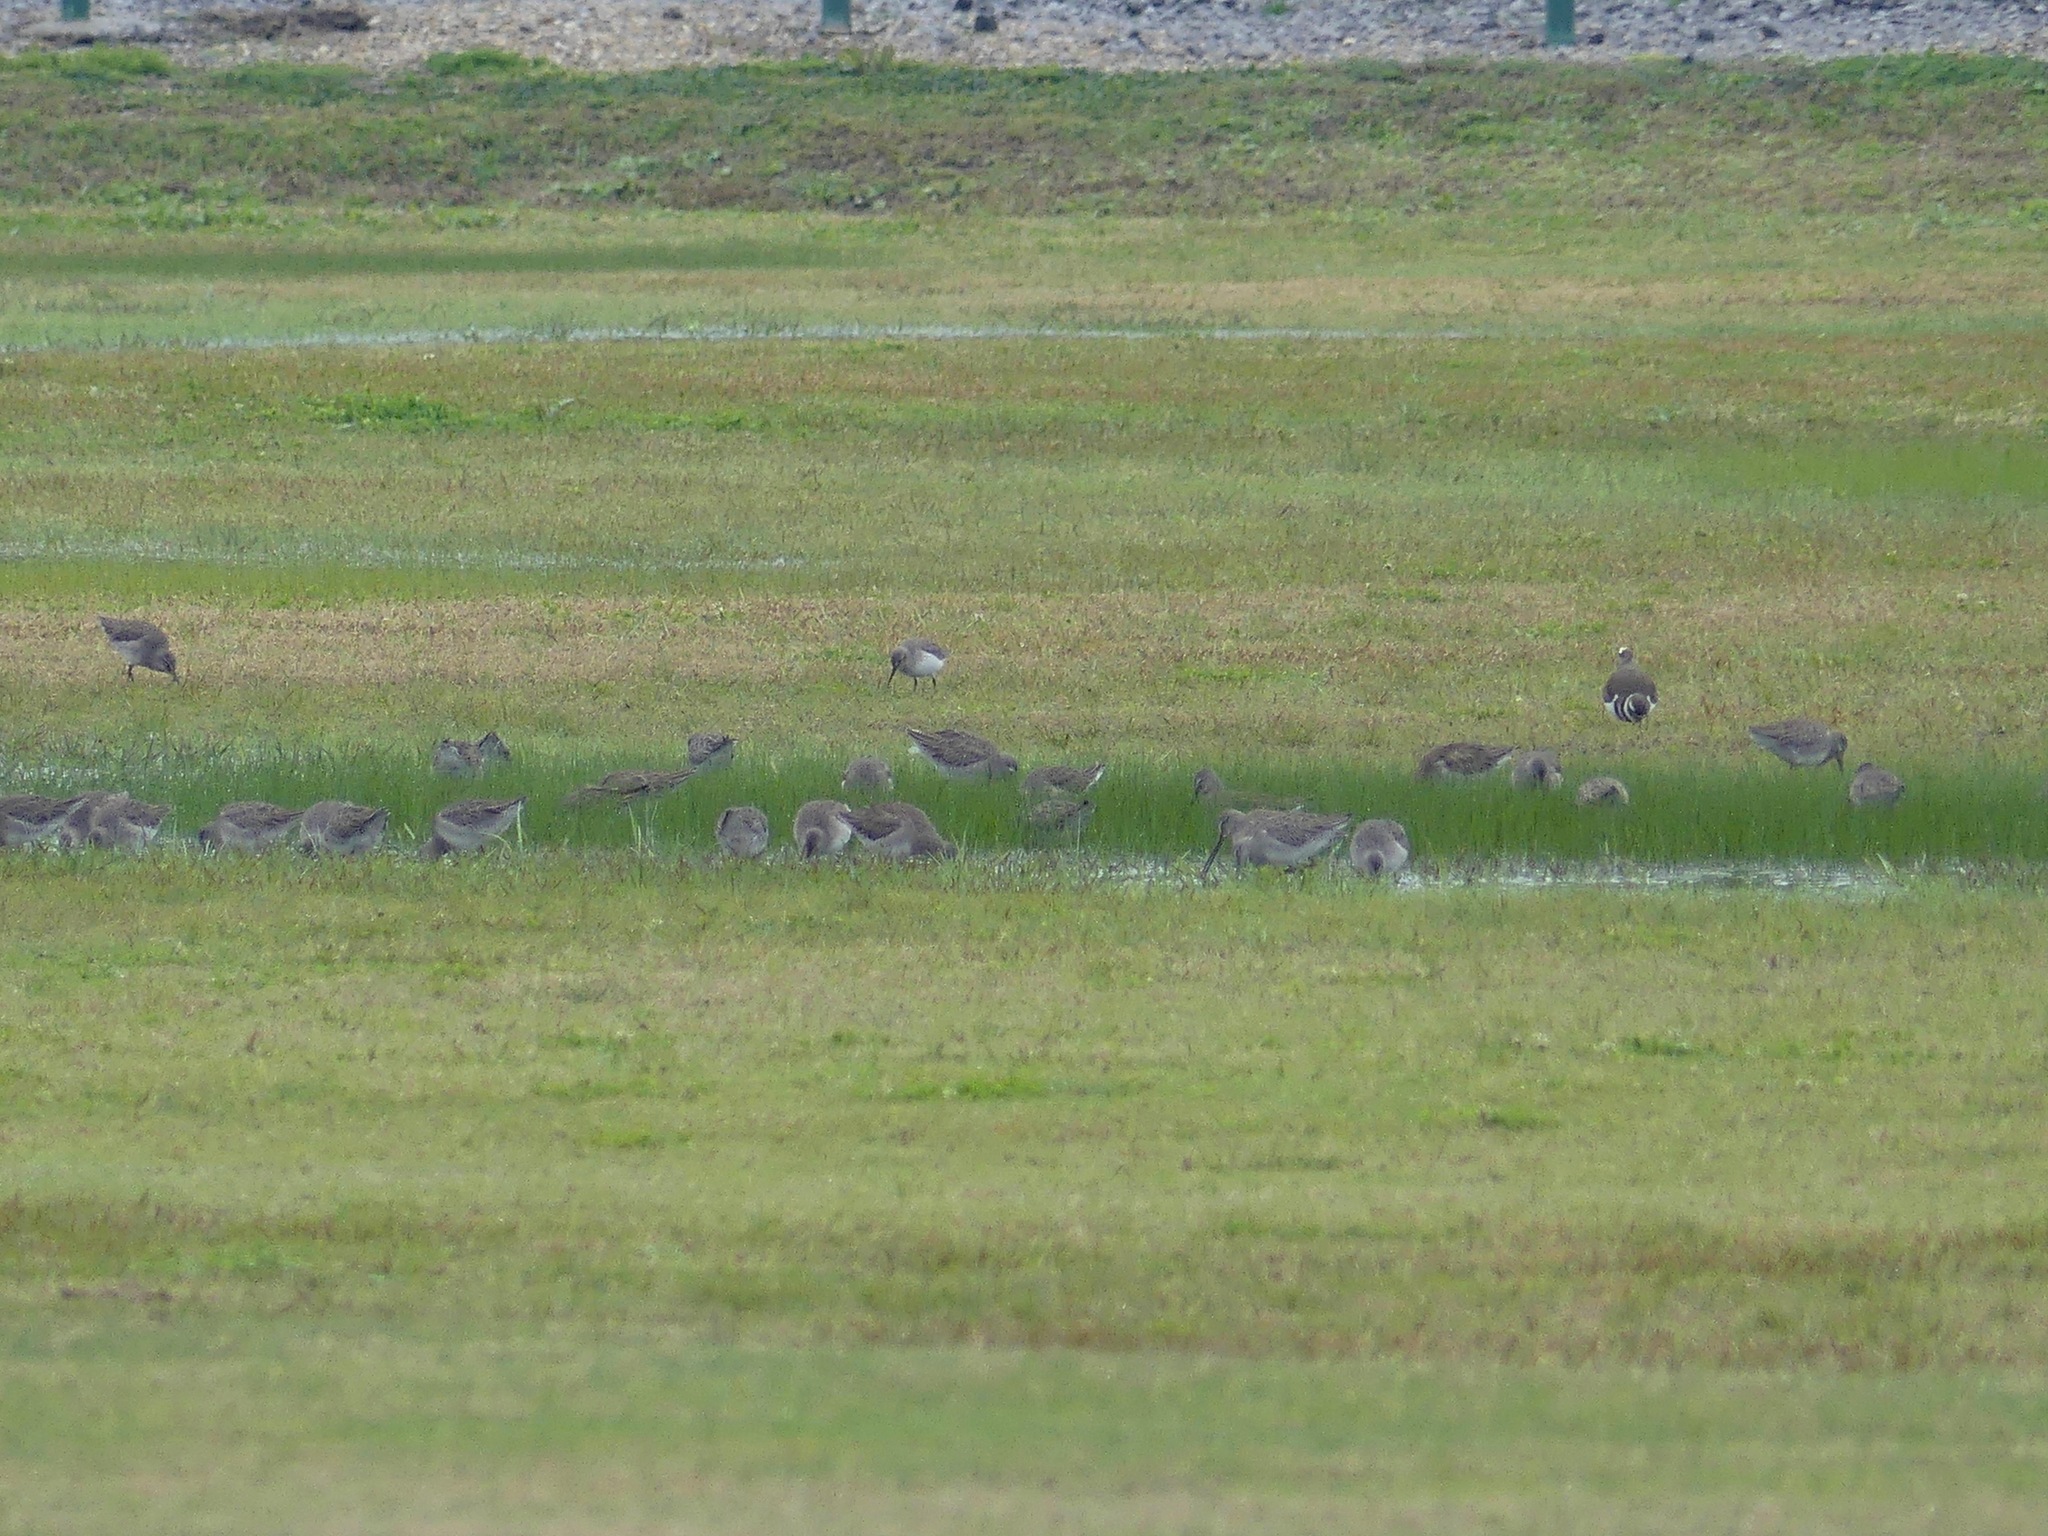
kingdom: Animalia
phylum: Chordata
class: Aves
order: Charadriiformes
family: Scolopacidae
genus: Limnodromus
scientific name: Limnodromus scolopaceus
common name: Long-billed dowitcher
